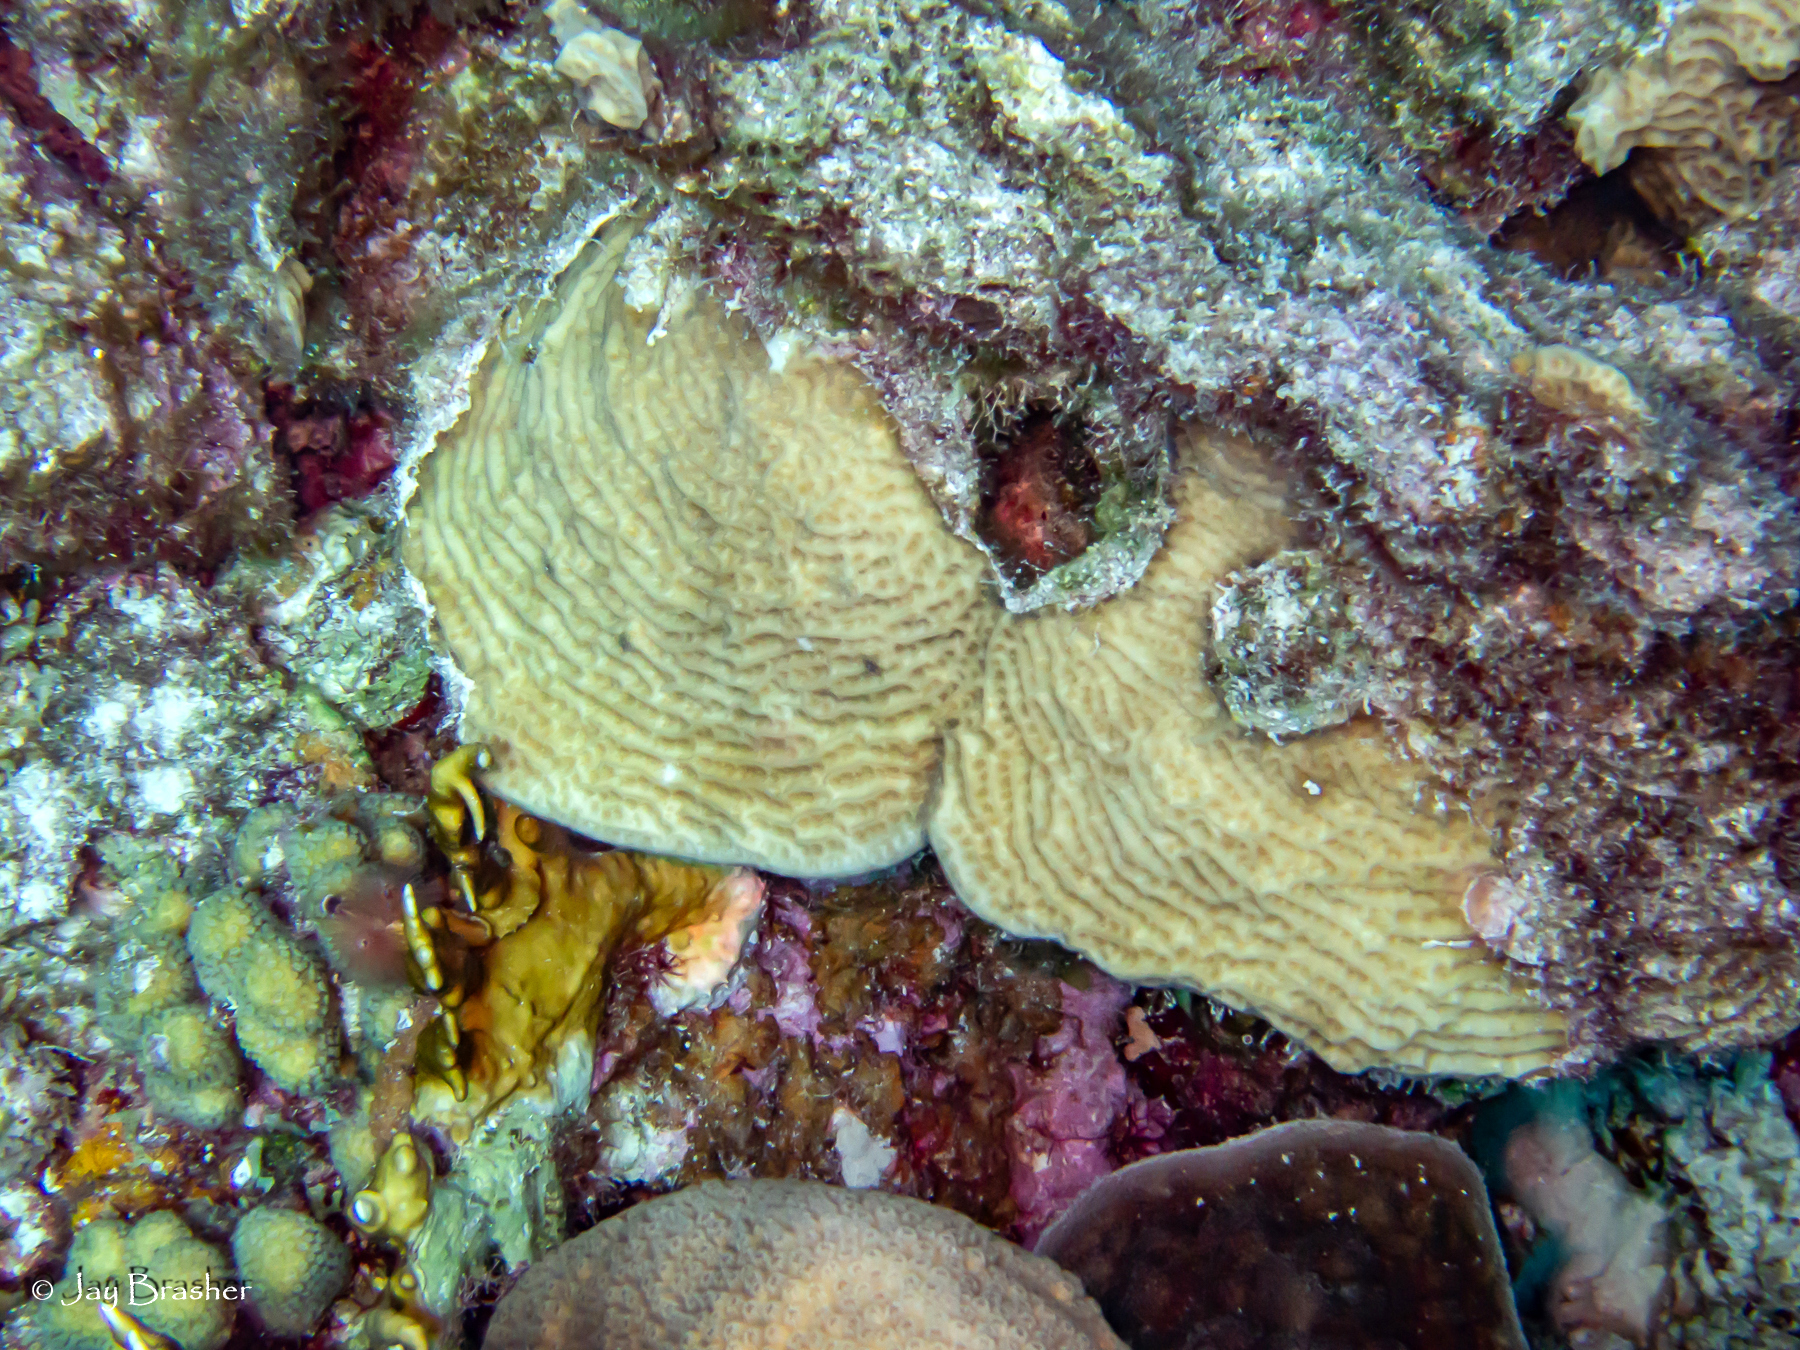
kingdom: Animalia
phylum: Cnidaria
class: Anthozoa
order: Scleractinia
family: Pocilloporidae
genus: Madracis
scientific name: Madracis decactis
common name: Ten-ray star coral
